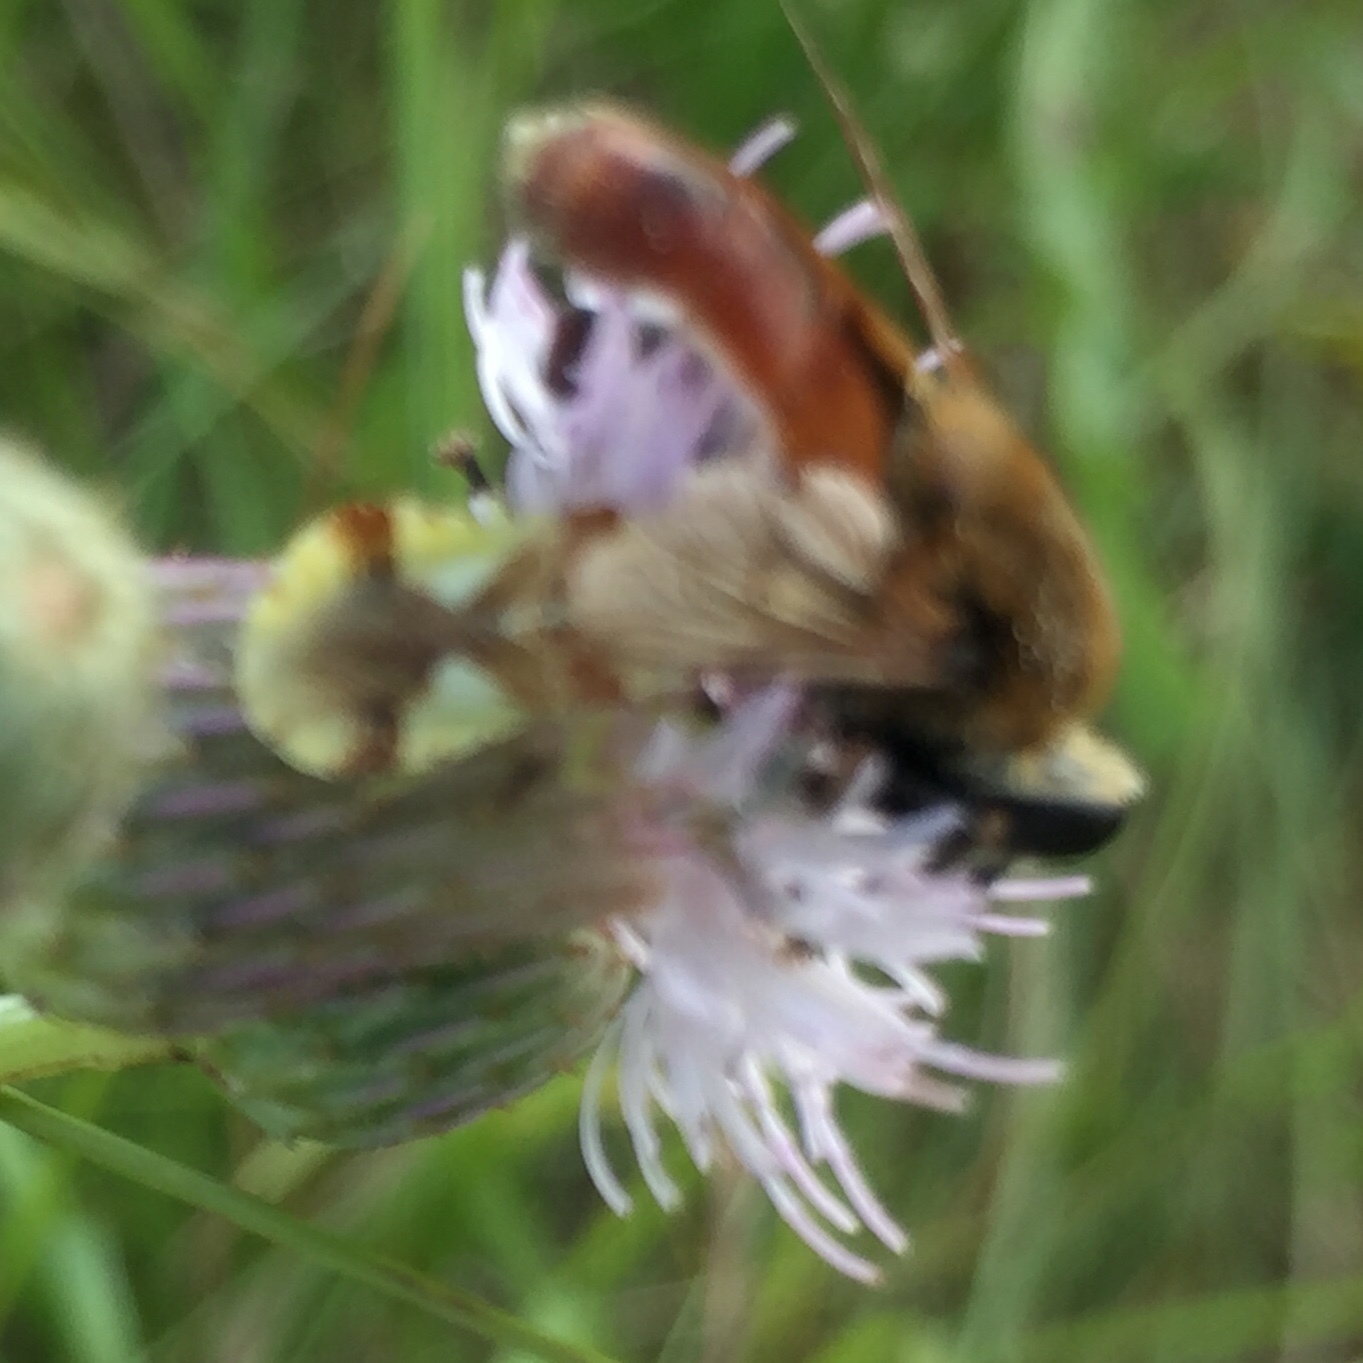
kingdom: Animalia
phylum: Arthropoda
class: Insecta
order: Diptera
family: Syrphidae
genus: Polydontomyia
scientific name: Polydontomyia curvipes
